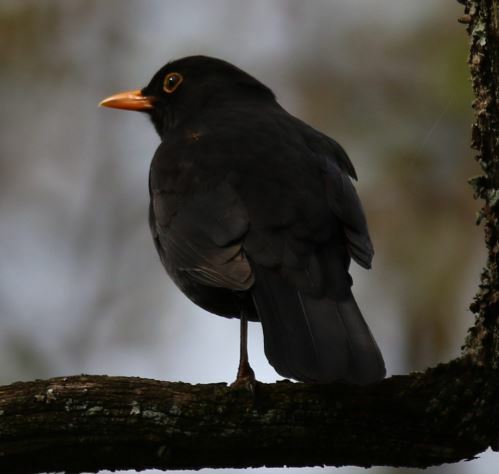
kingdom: Animalia
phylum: Chordata
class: Aves
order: Passeriformes
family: Turdidae
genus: Turdus
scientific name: Turdus merula
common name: Common blackbird
